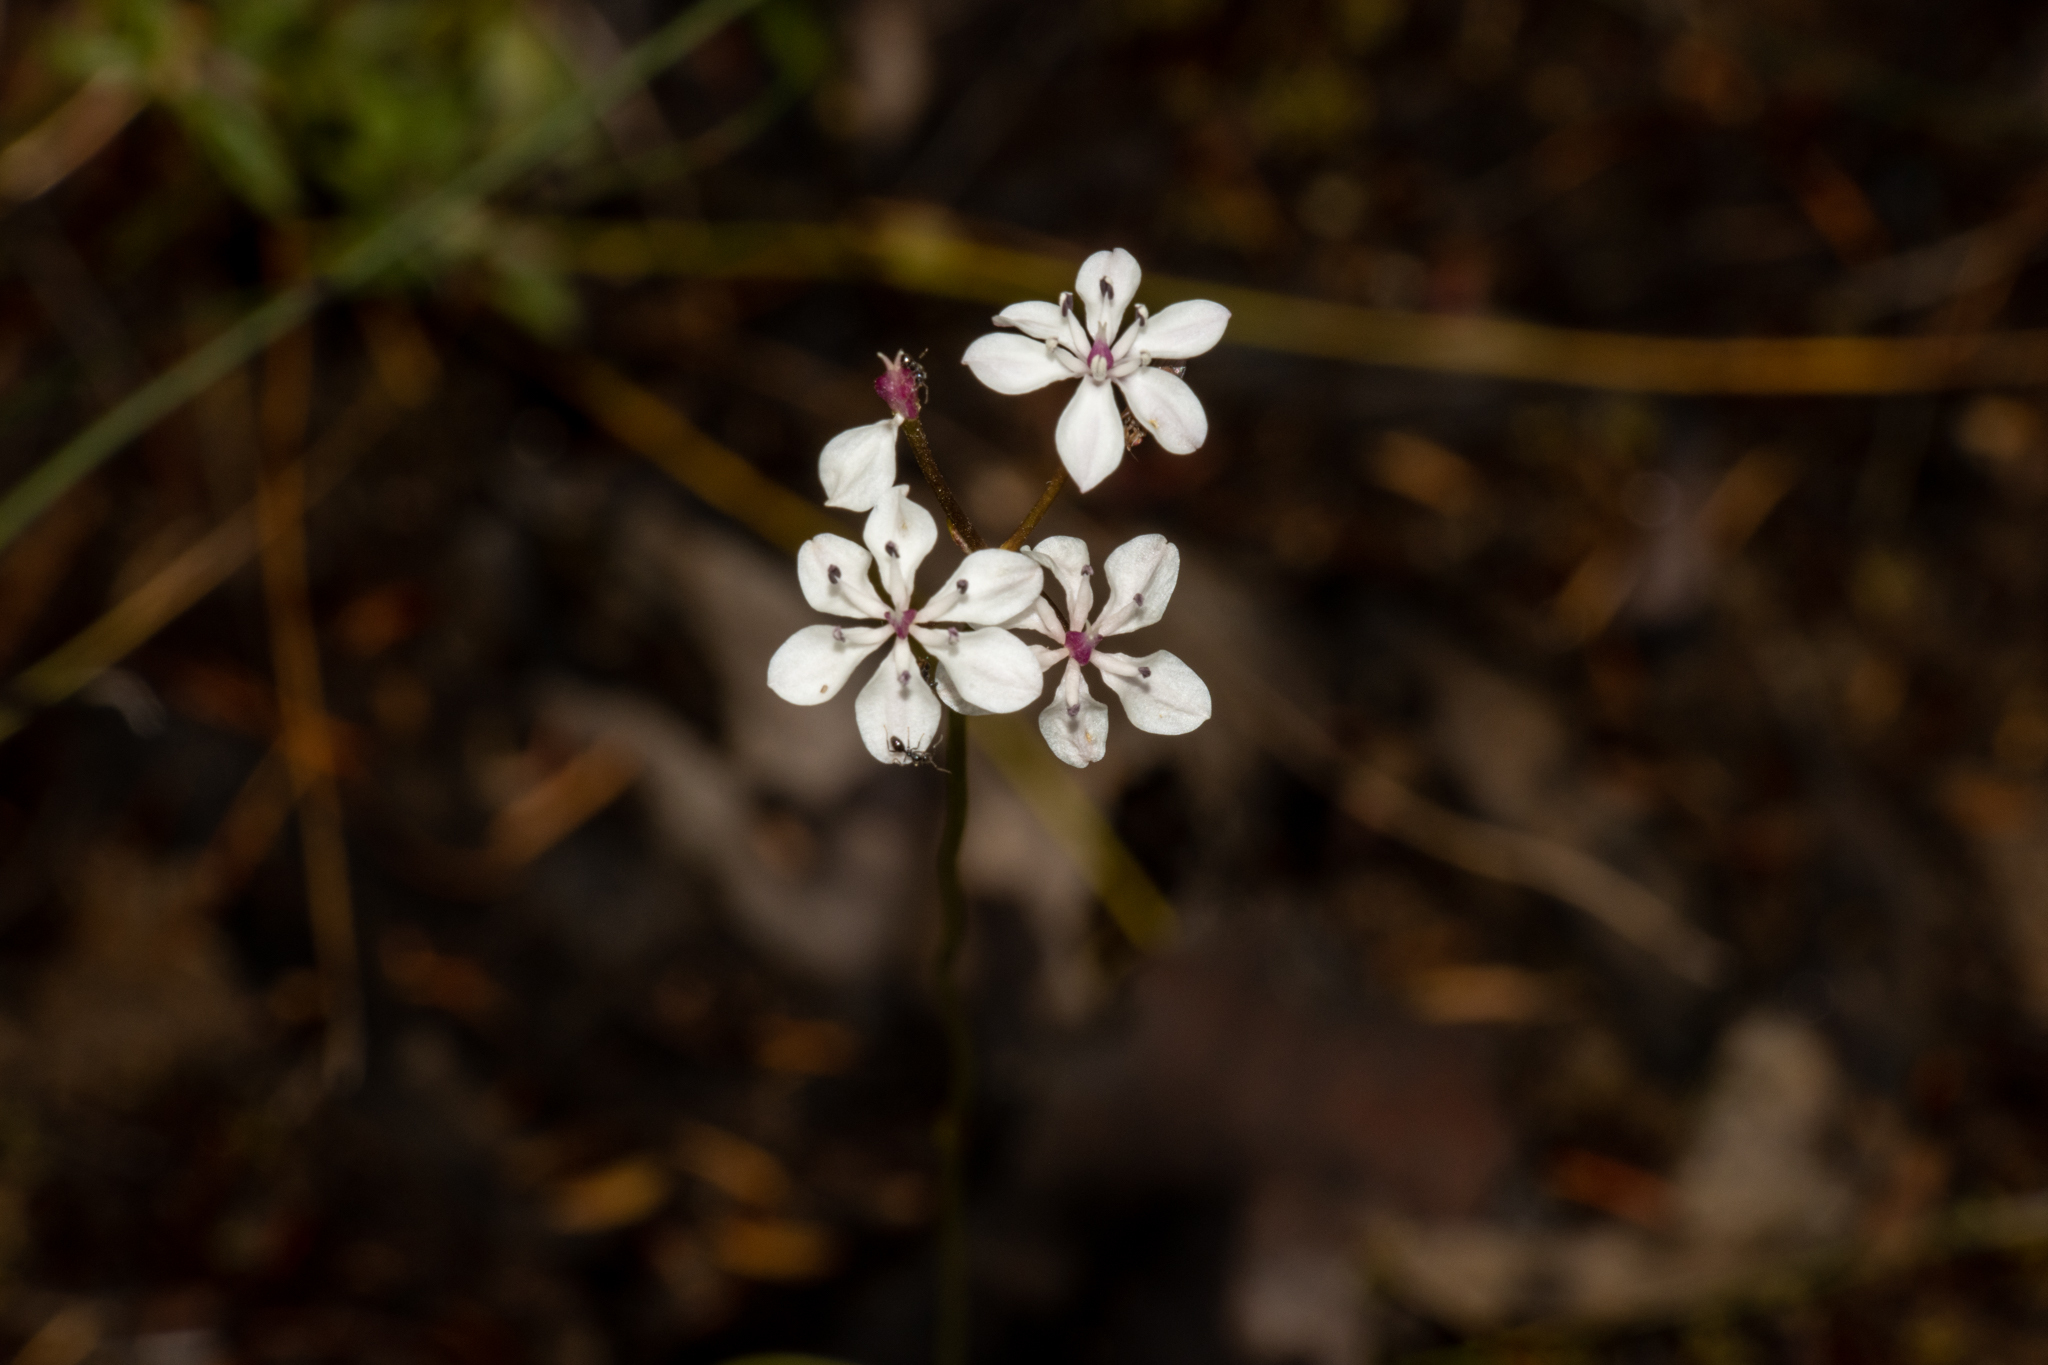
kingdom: Plantae
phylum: Tracheophyta
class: Liliopsida
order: Liliales
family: Colchicaceae
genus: Burchardia
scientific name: Burchardia umbellata
